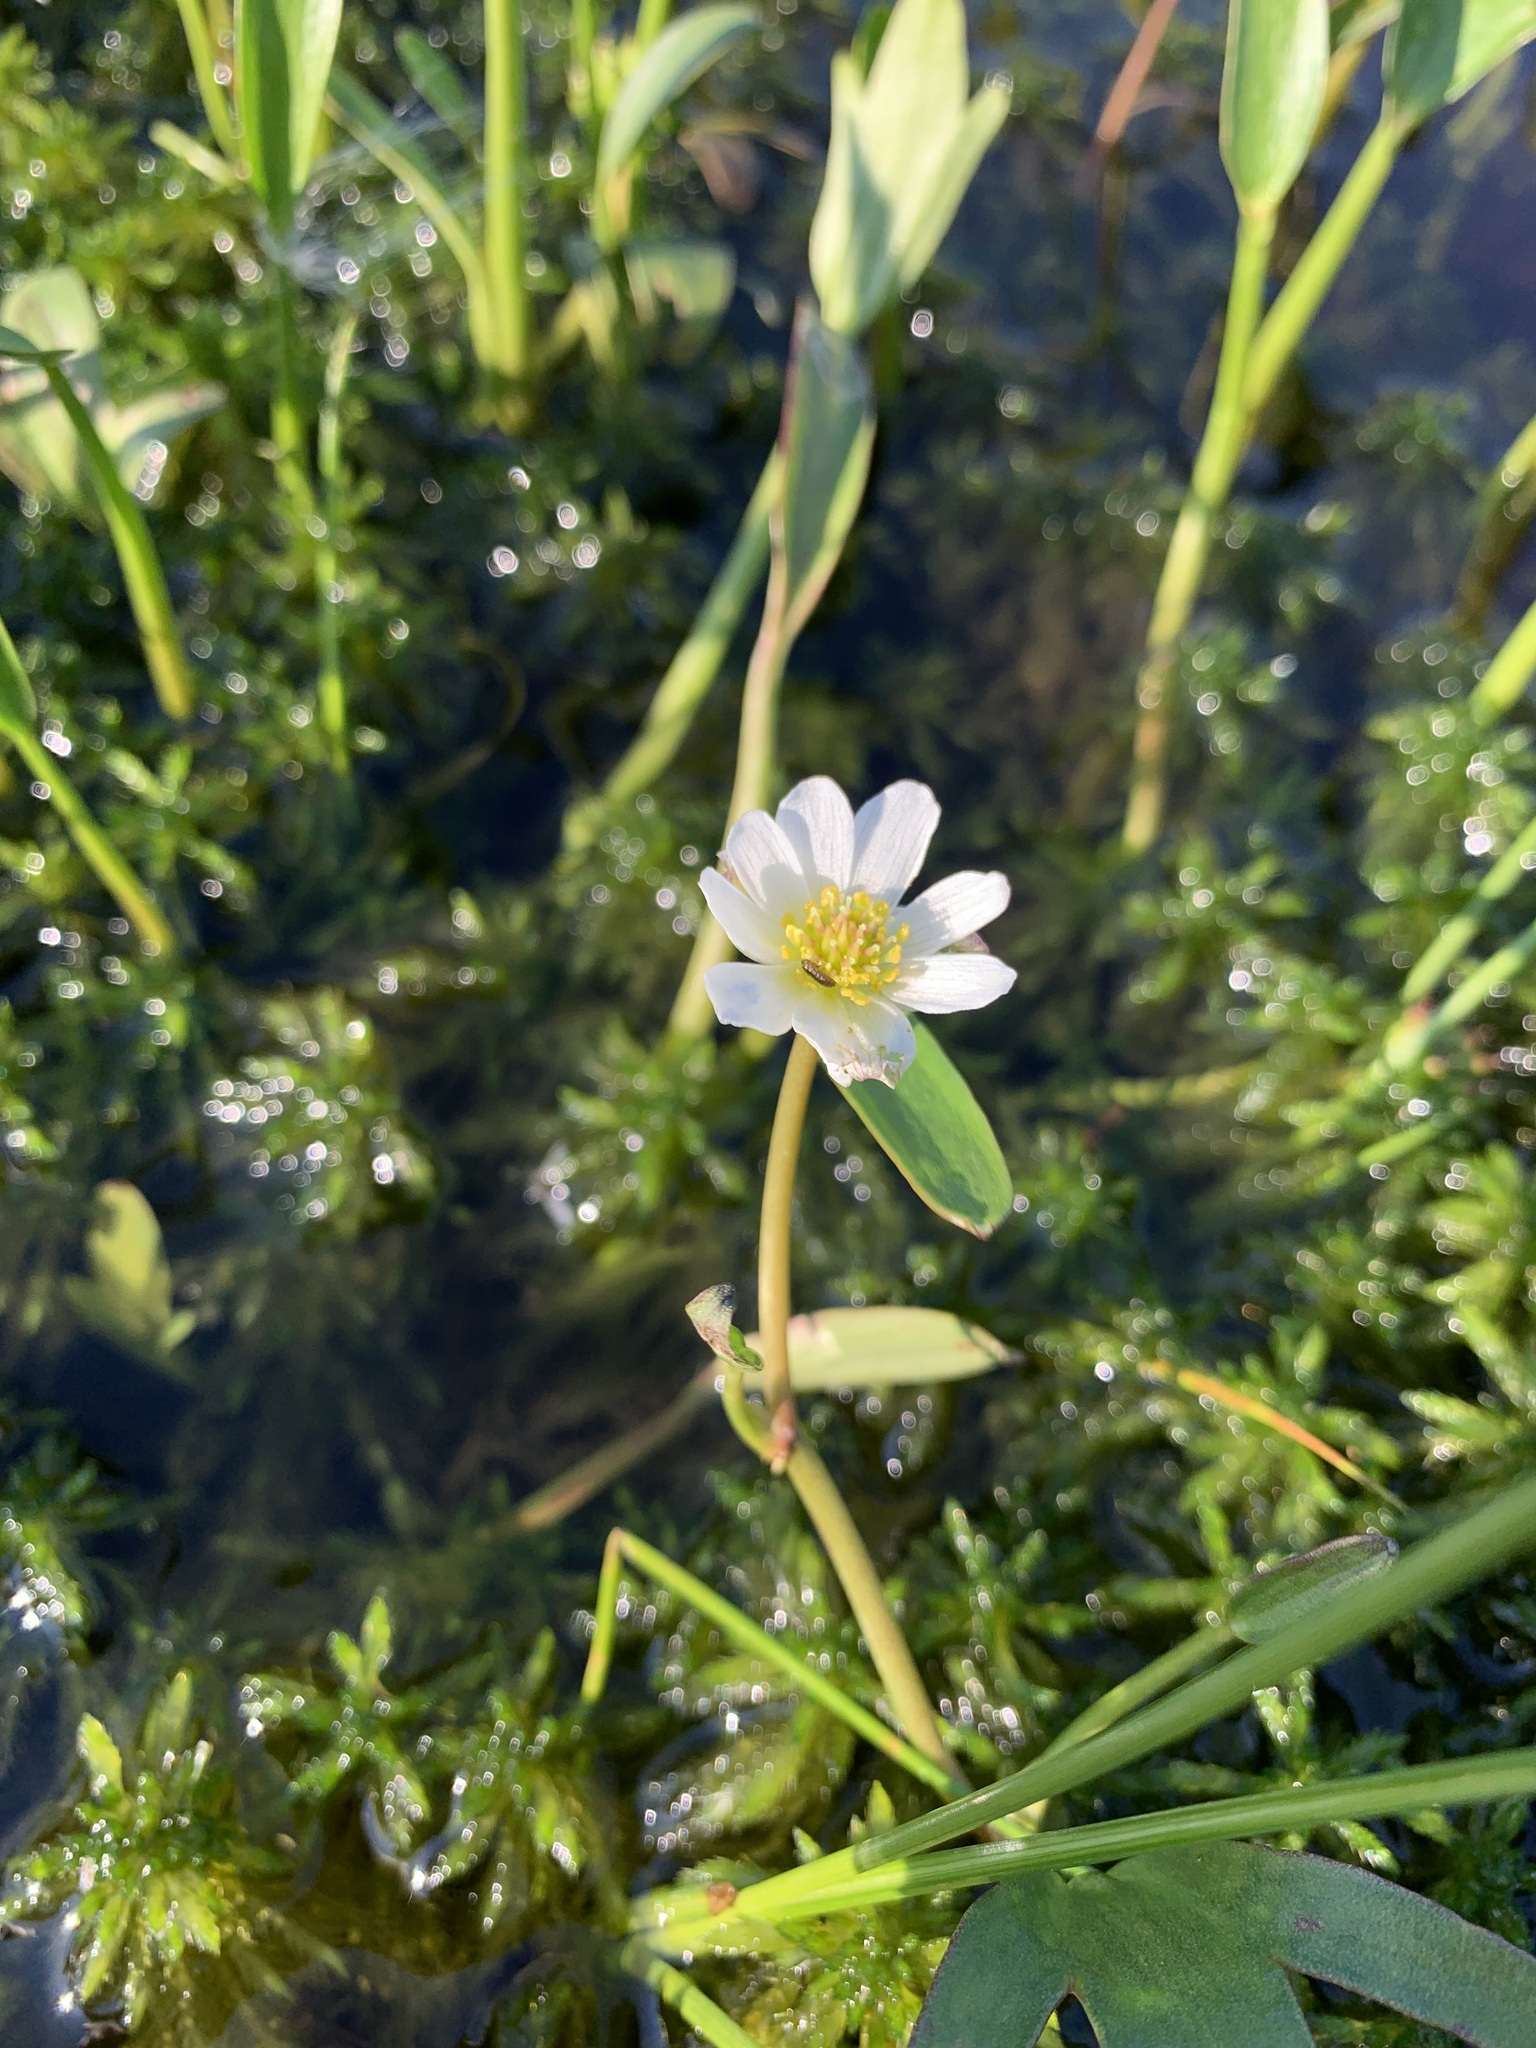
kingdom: Plantae
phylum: Tracheophyta
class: Magnoliopsida
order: Ranunculales
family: Ranunculaceae
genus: Coptidium
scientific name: Coptidium pallasii
